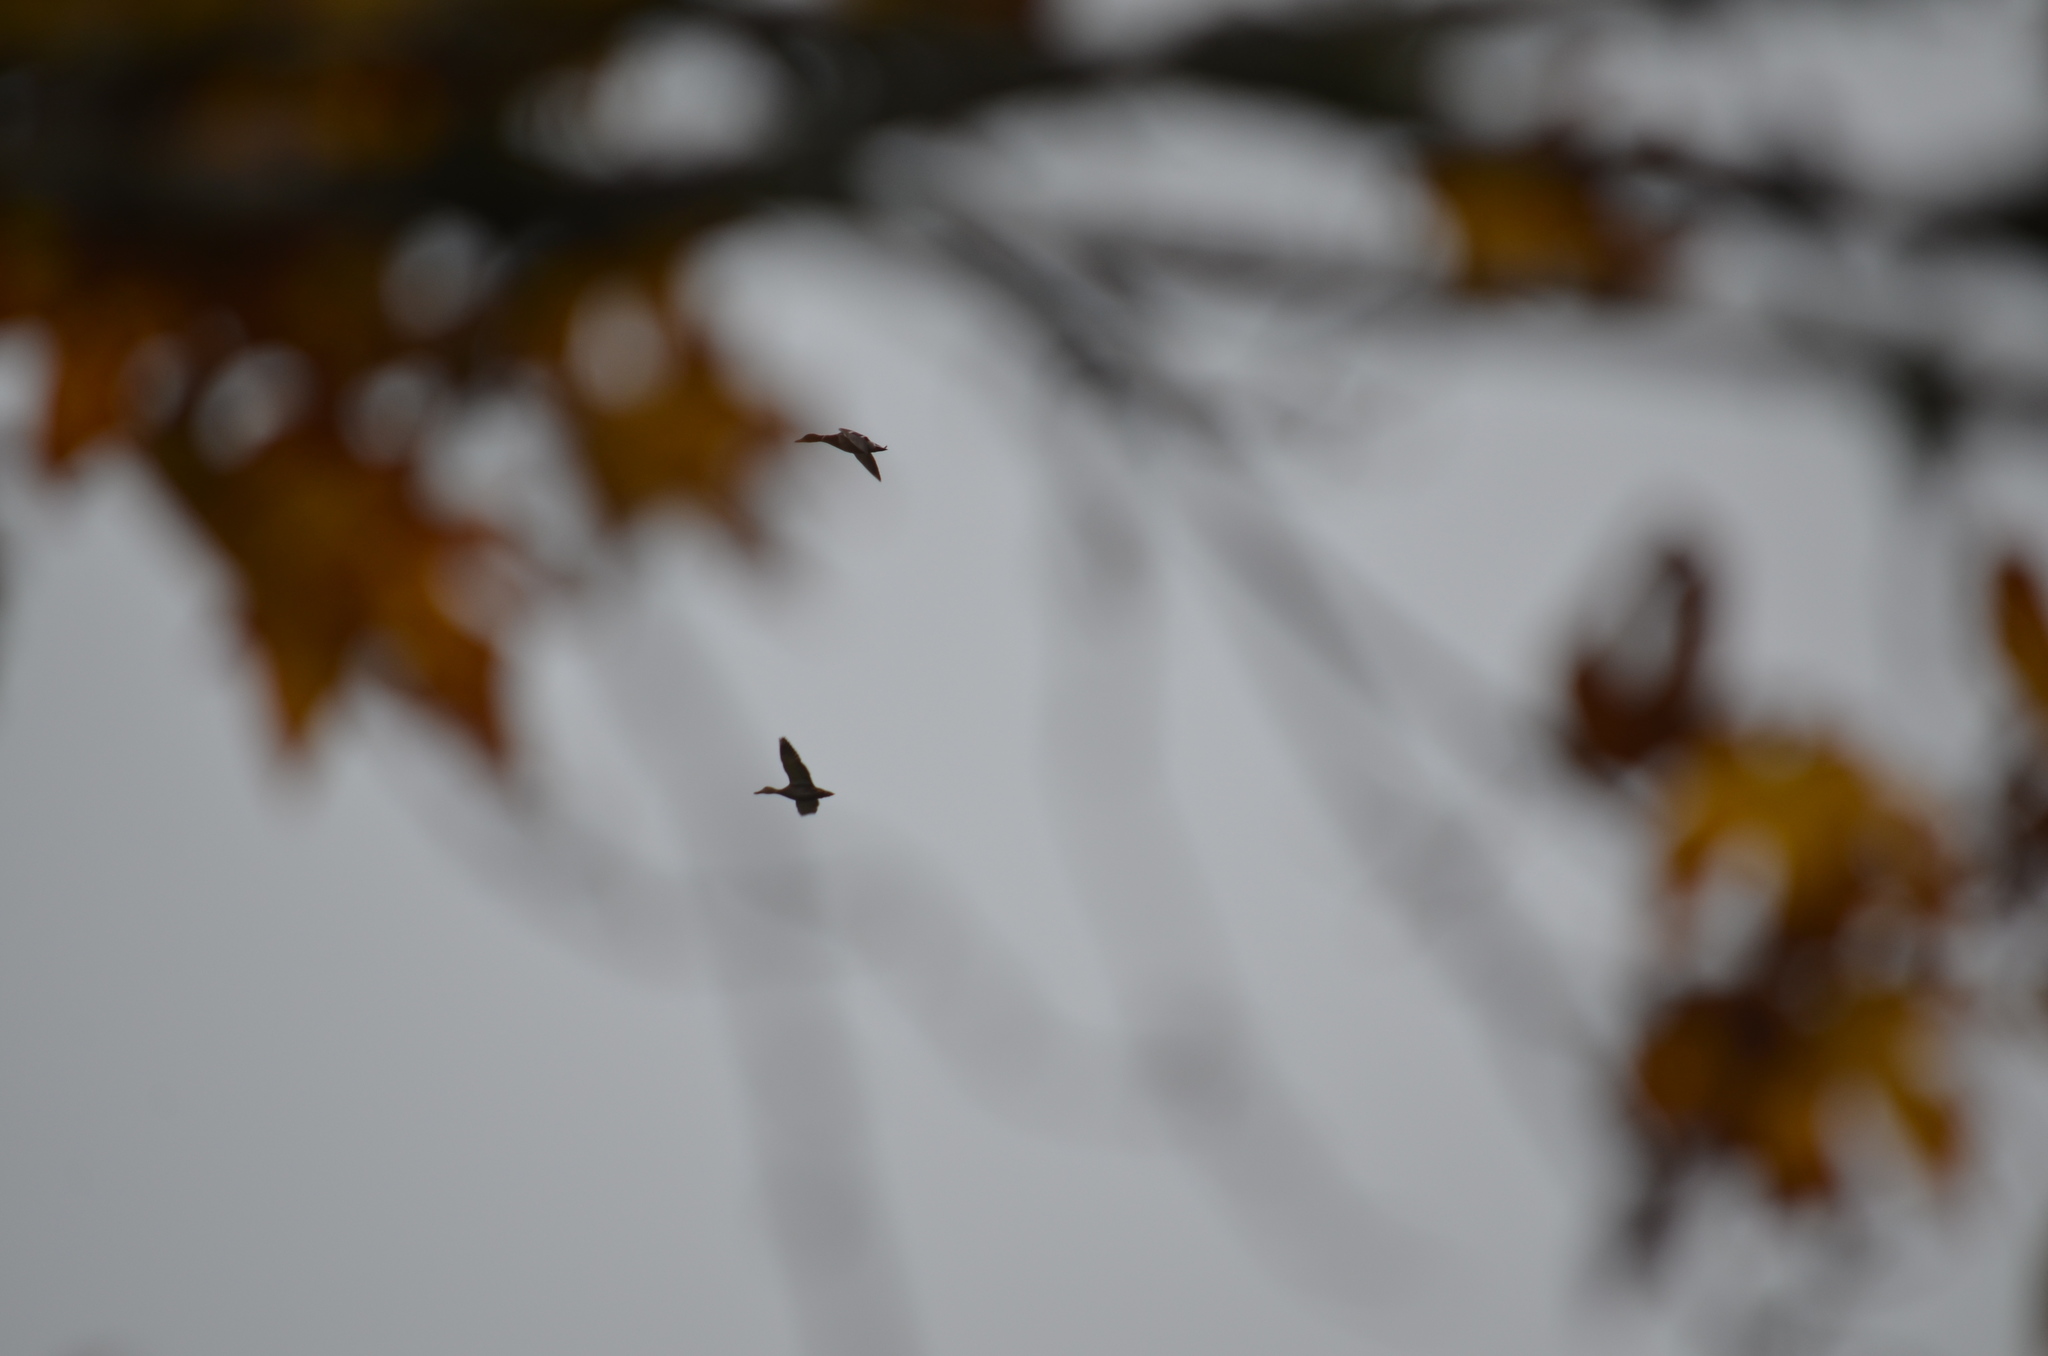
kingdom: Animalia
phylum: Chordata
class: Aves
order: Anseriformes
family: Anatidae
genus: Anas
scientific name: Anas platyrhynchos
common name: Mallard
